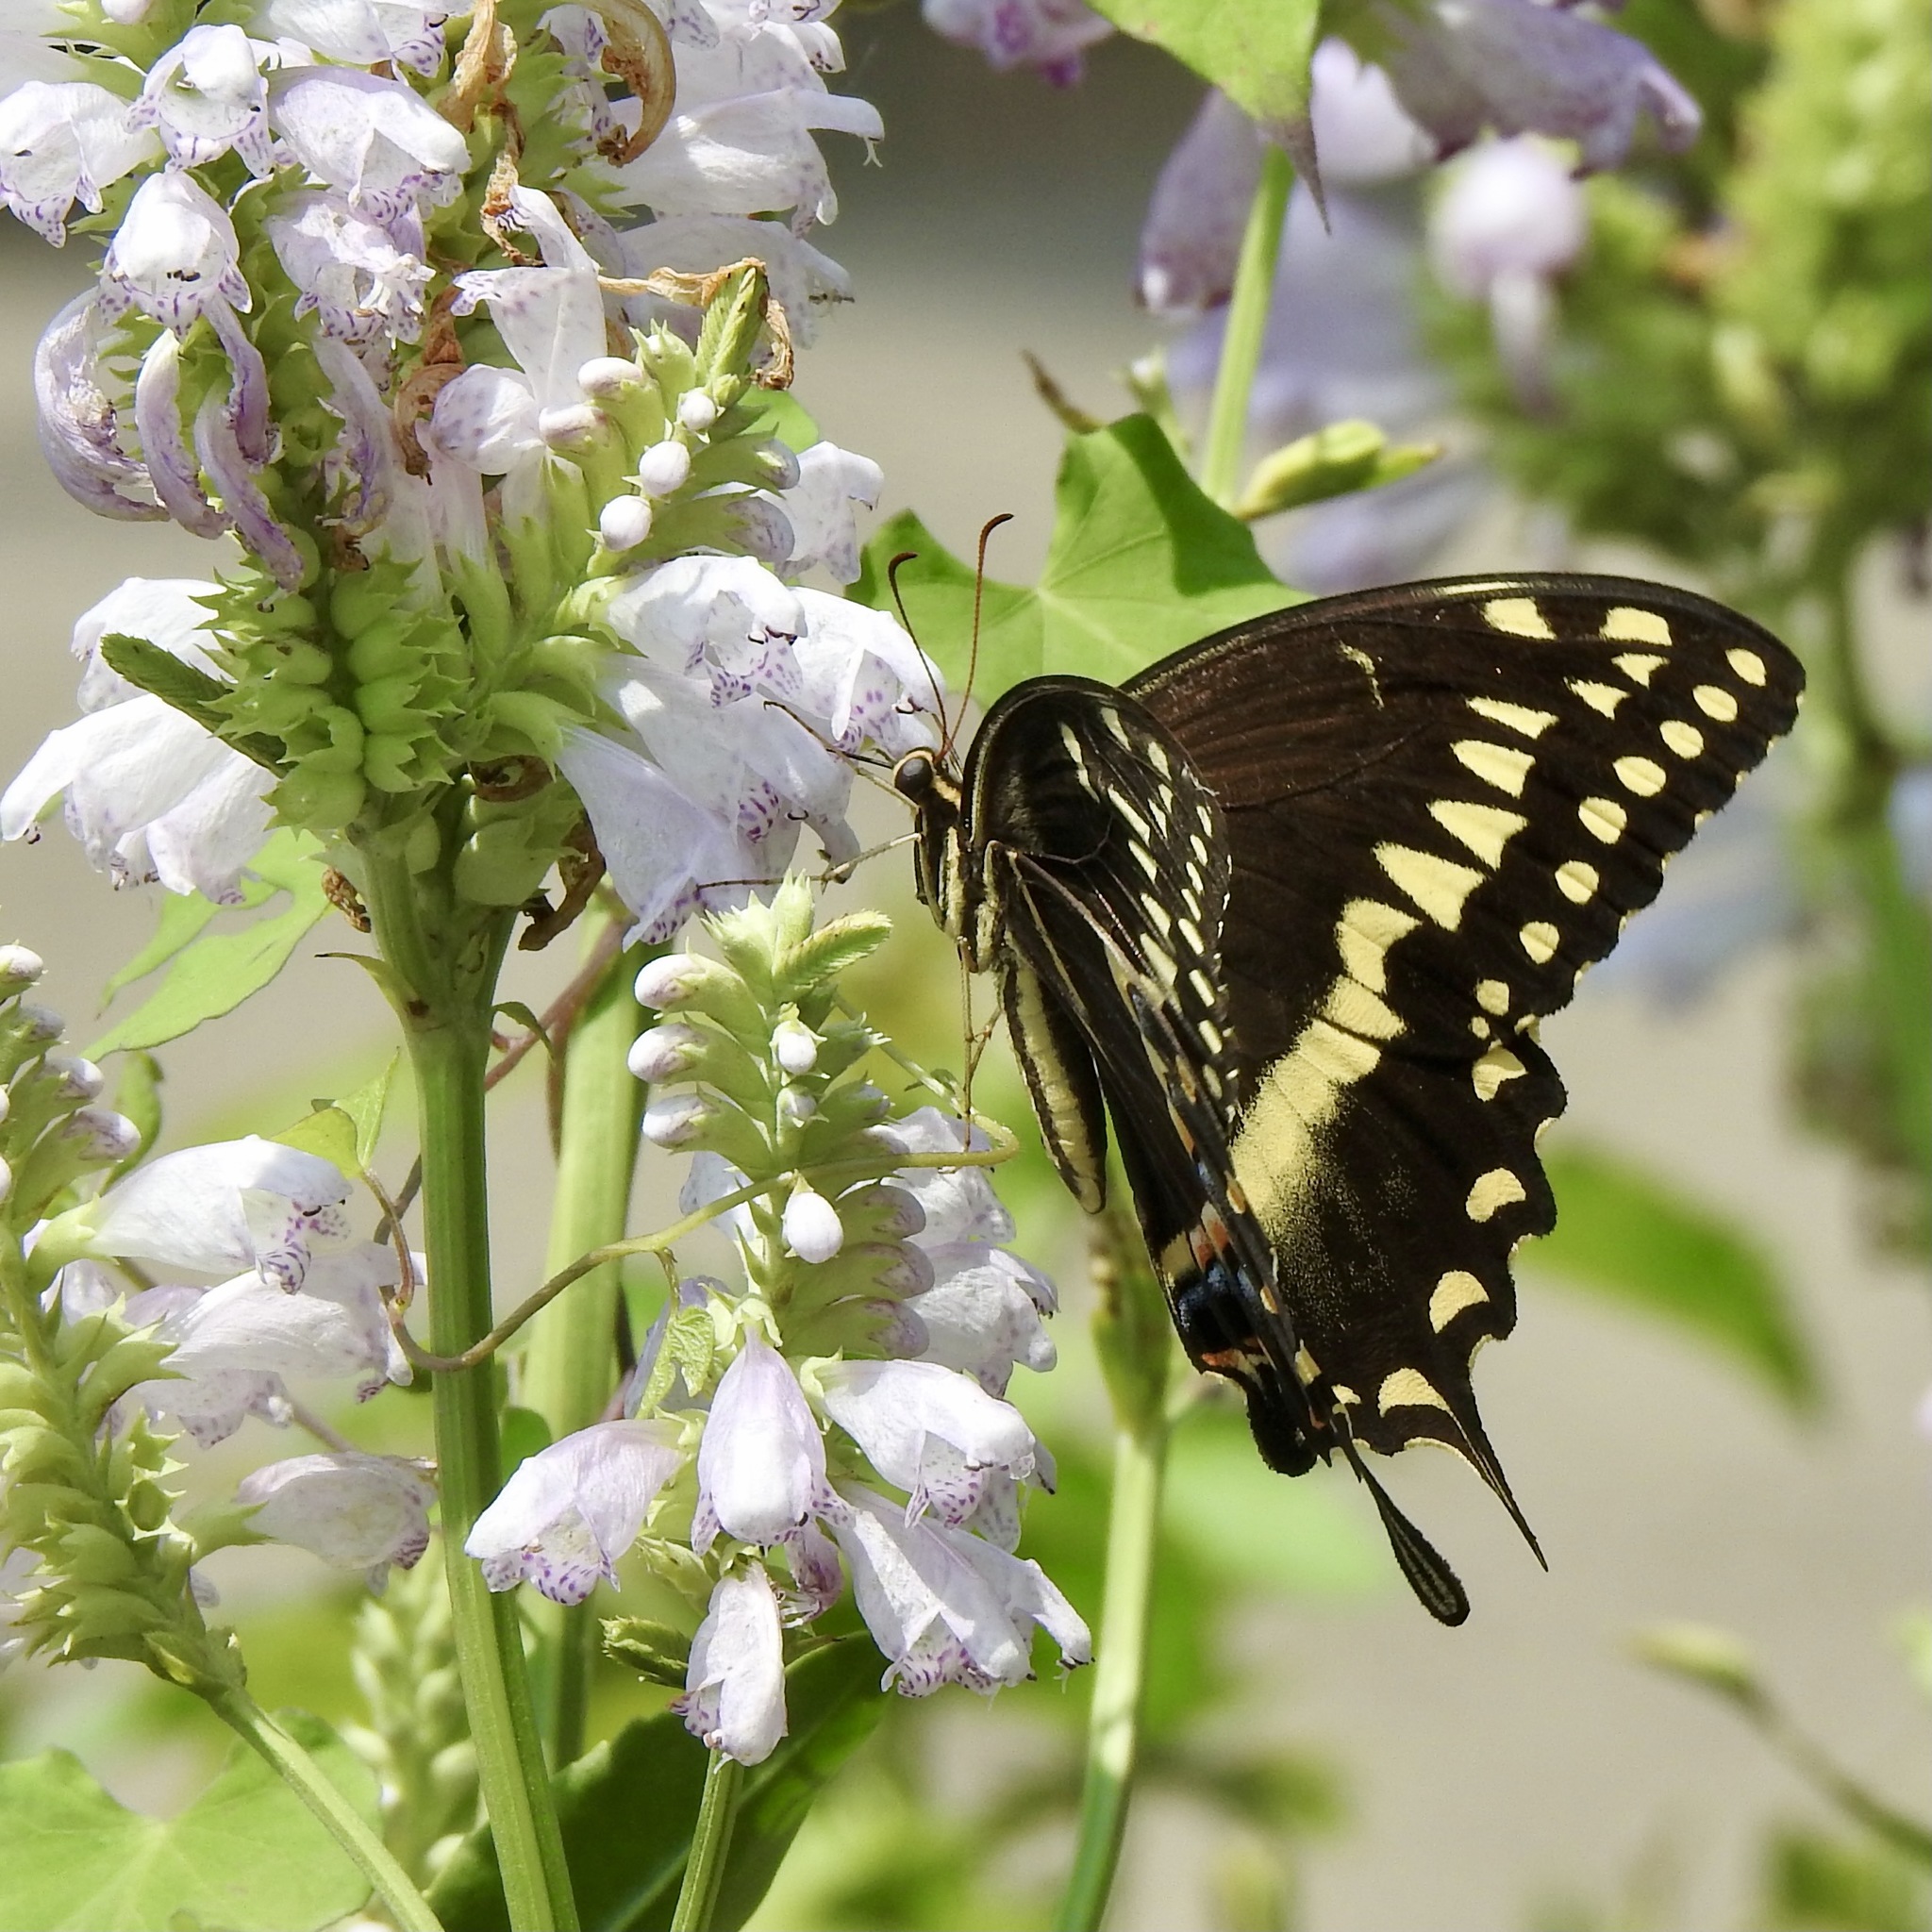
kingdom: Animalia
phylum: Arthropoda
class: Insecta
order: Lepidoptera
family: Papilionidae
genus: Papilio
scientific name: Papilio palamedes
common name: Palamedes swallowtail
